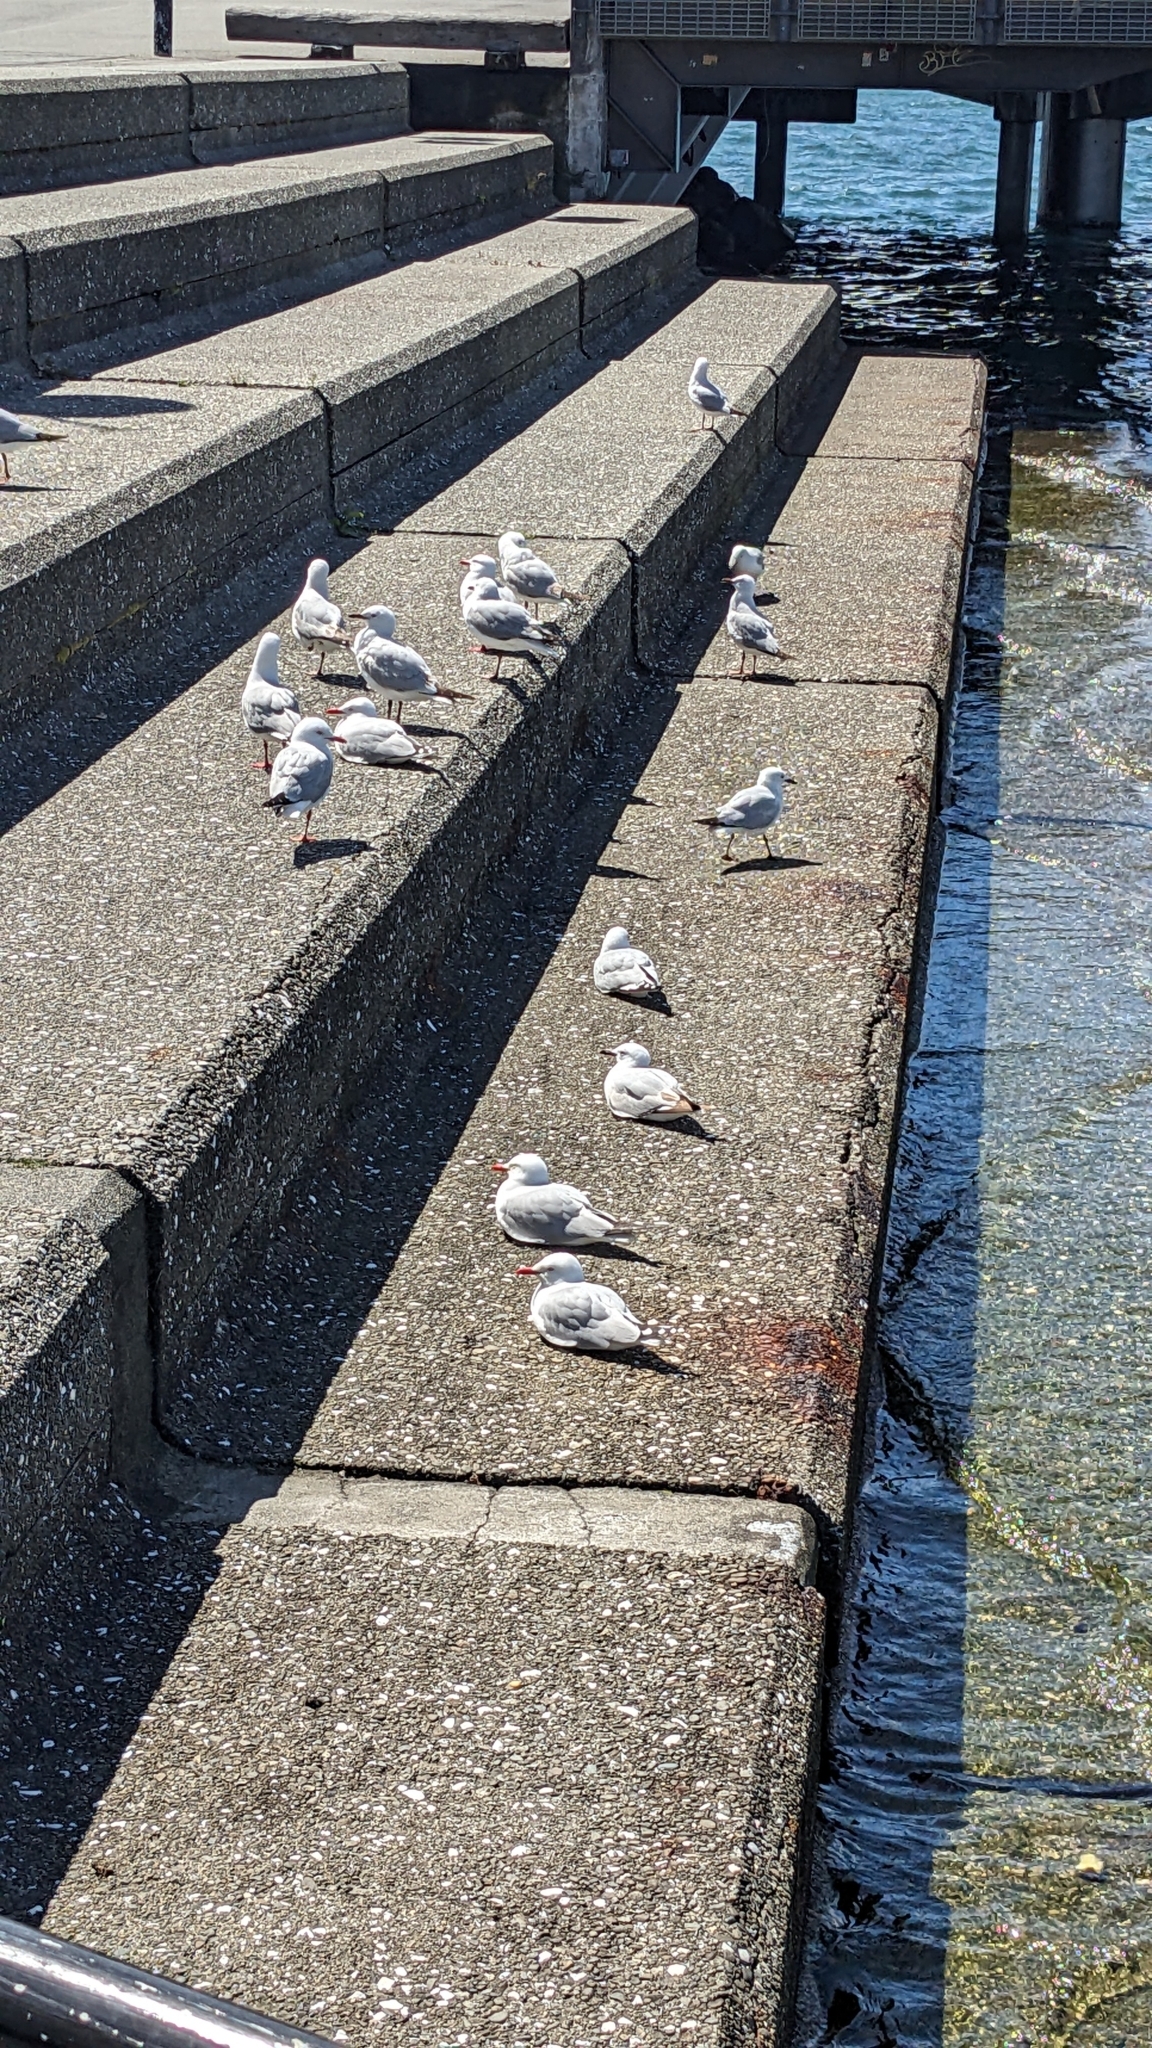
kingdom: Animalia
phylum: Chordata
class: Aves
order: Charadriiformes
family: Laridae
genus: Chroicocephalus
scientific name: Chroicocephalus novaehollandiae
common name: Silver gull
